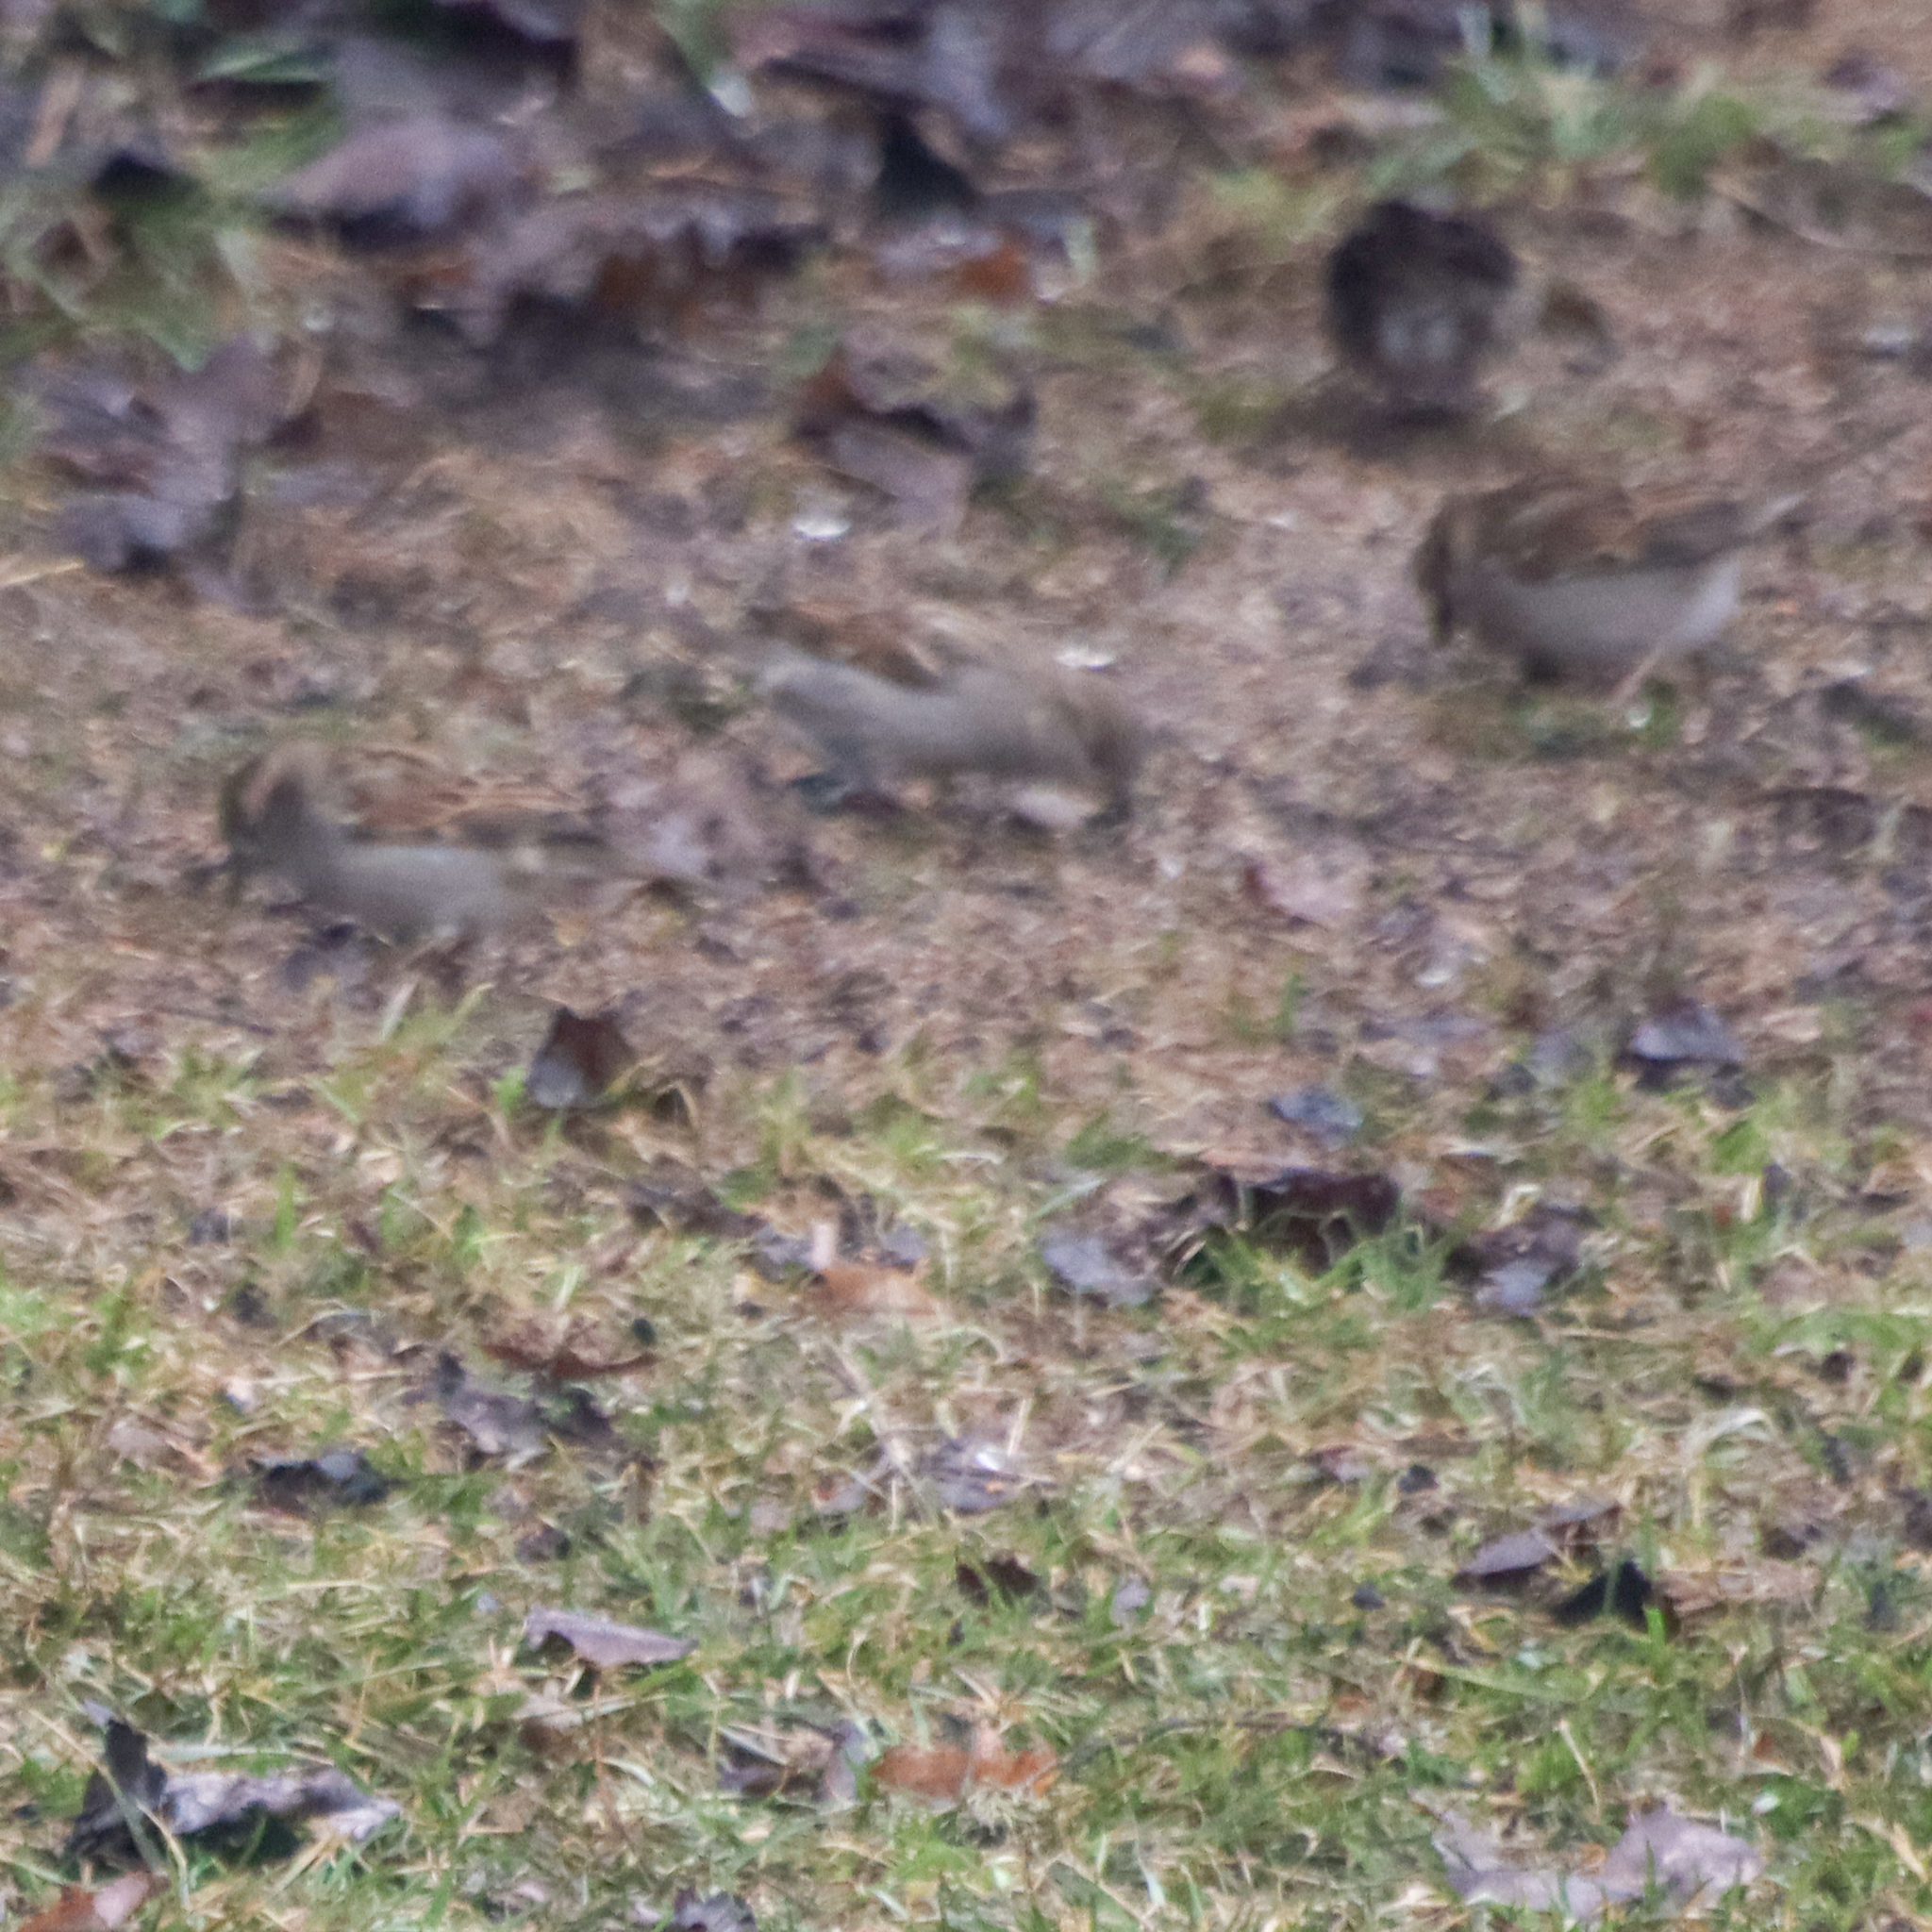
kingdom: Animalia
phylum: Chordata
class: Aves
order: Passeriformes
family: Passeridae
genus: Passer
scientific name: Passer domesticus
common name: House sparrow
